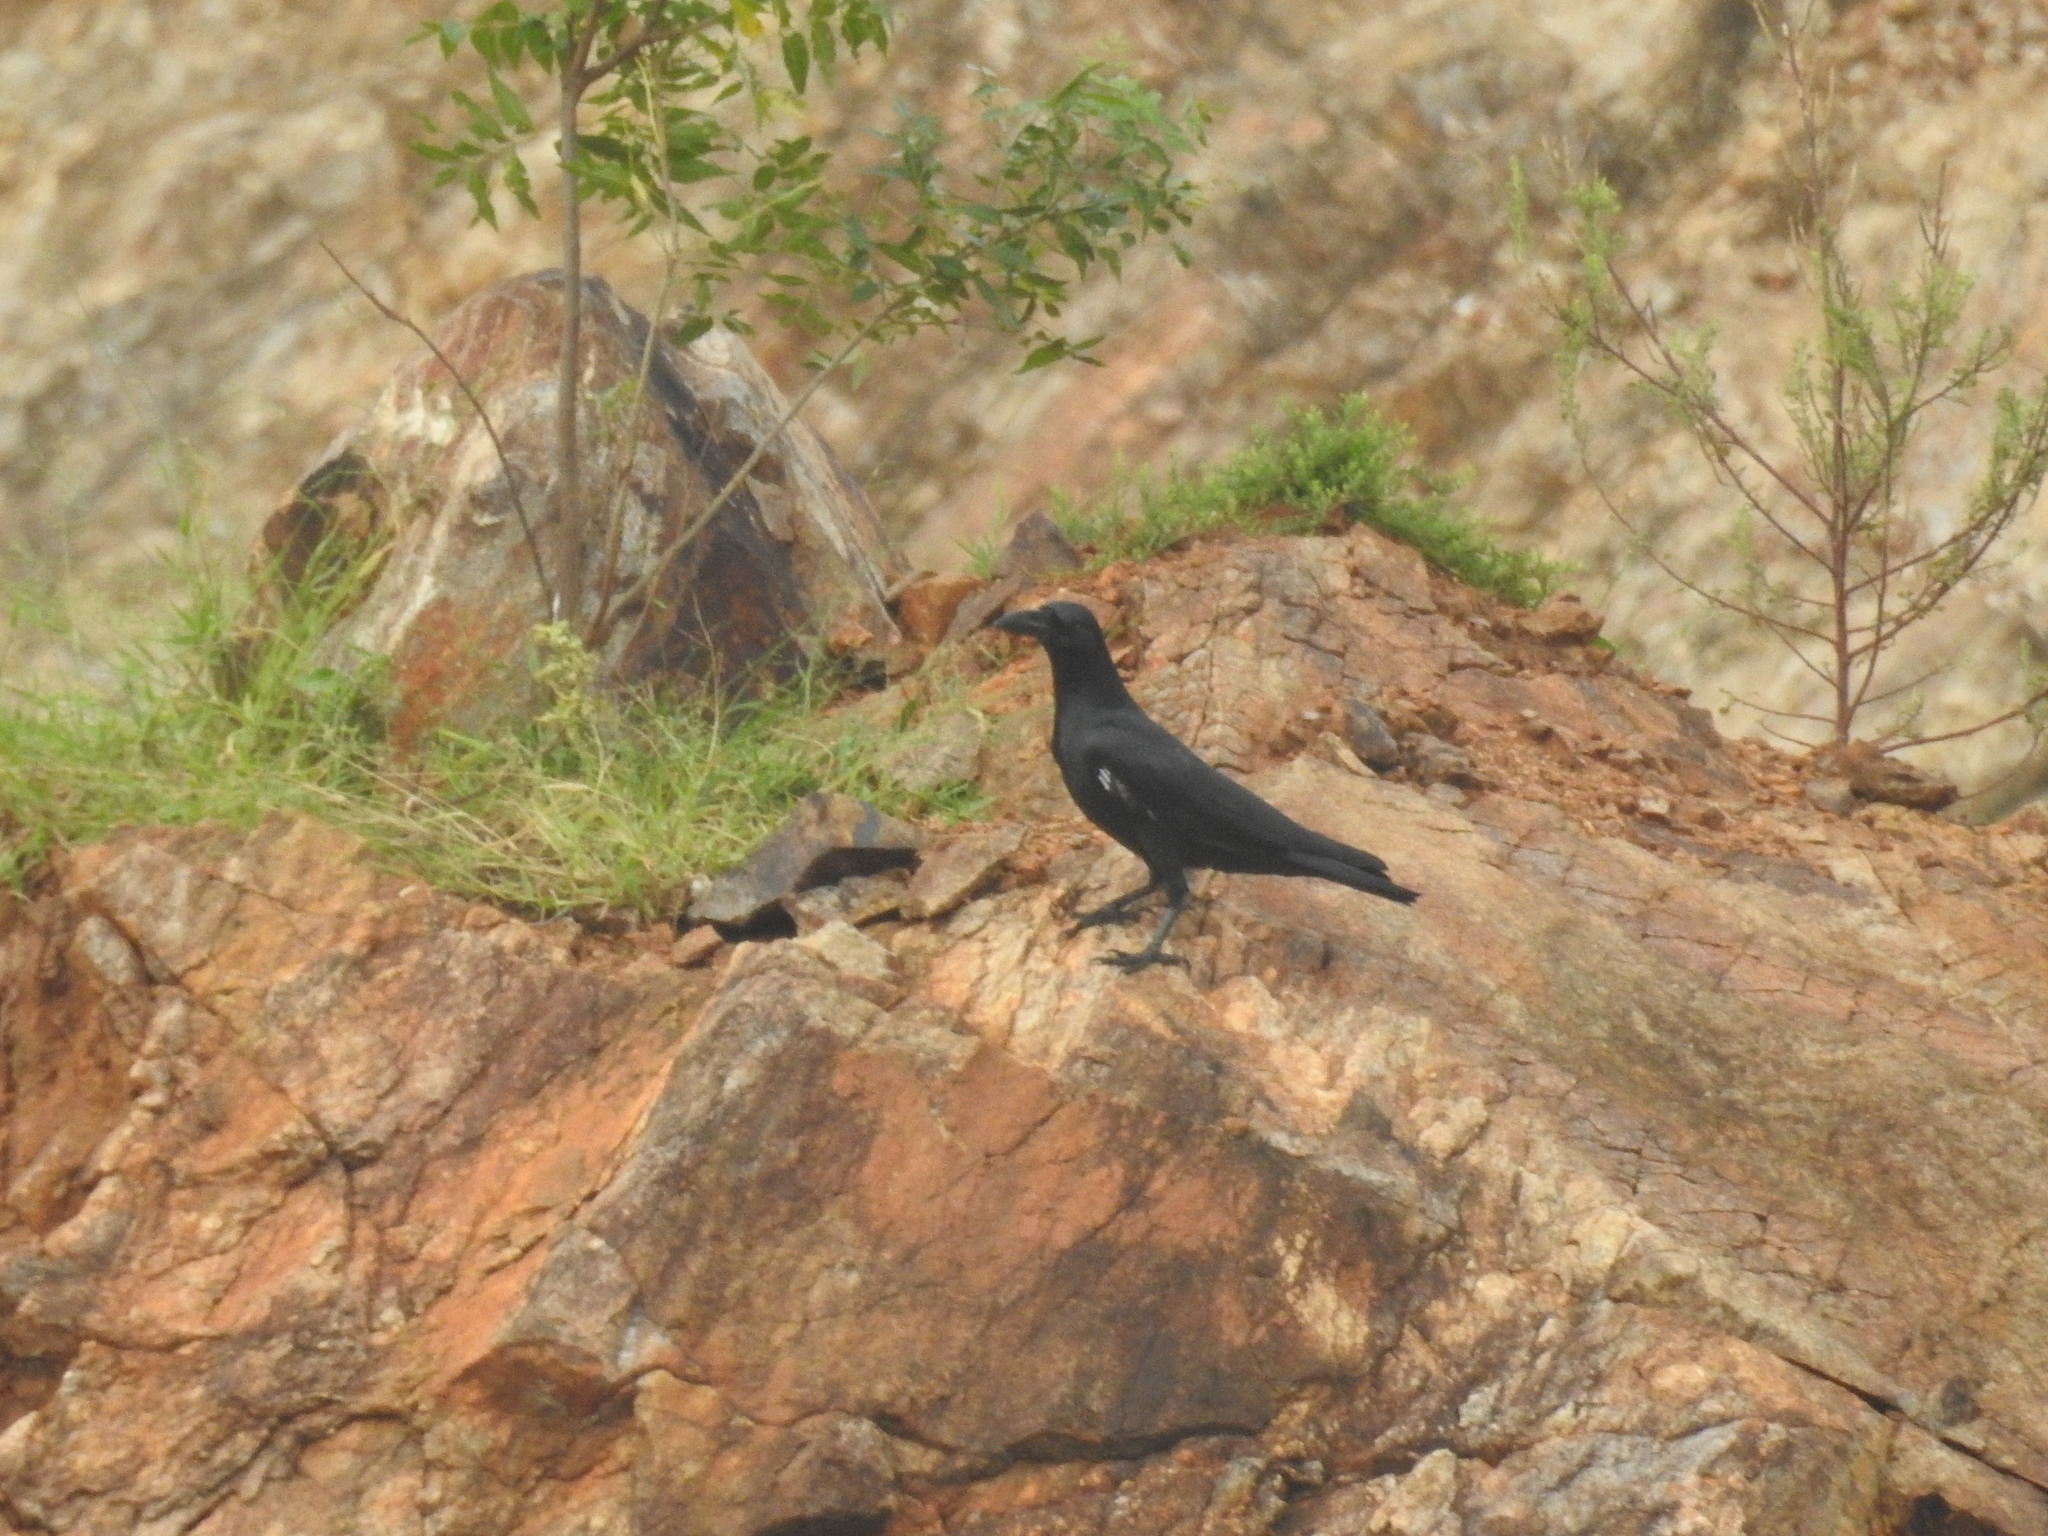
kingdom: Animalia
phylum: Chordata
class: Aves
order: Passeriformes
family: Corvidae
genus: Corvus
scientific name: Corvus macrorhynchos
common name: Large-billed crow
